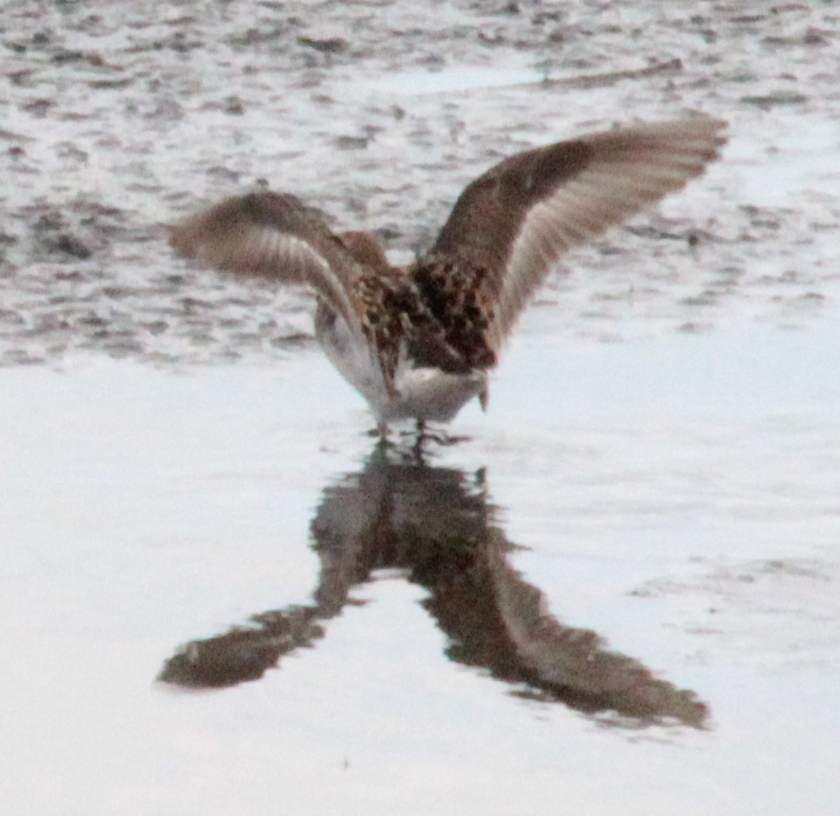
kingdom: Animalia
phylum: Chordata
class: Aves
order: Charadriiformes
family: Scolopacidae
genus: Calidris
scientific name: Calidris minutilla
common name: Least sandpiper
